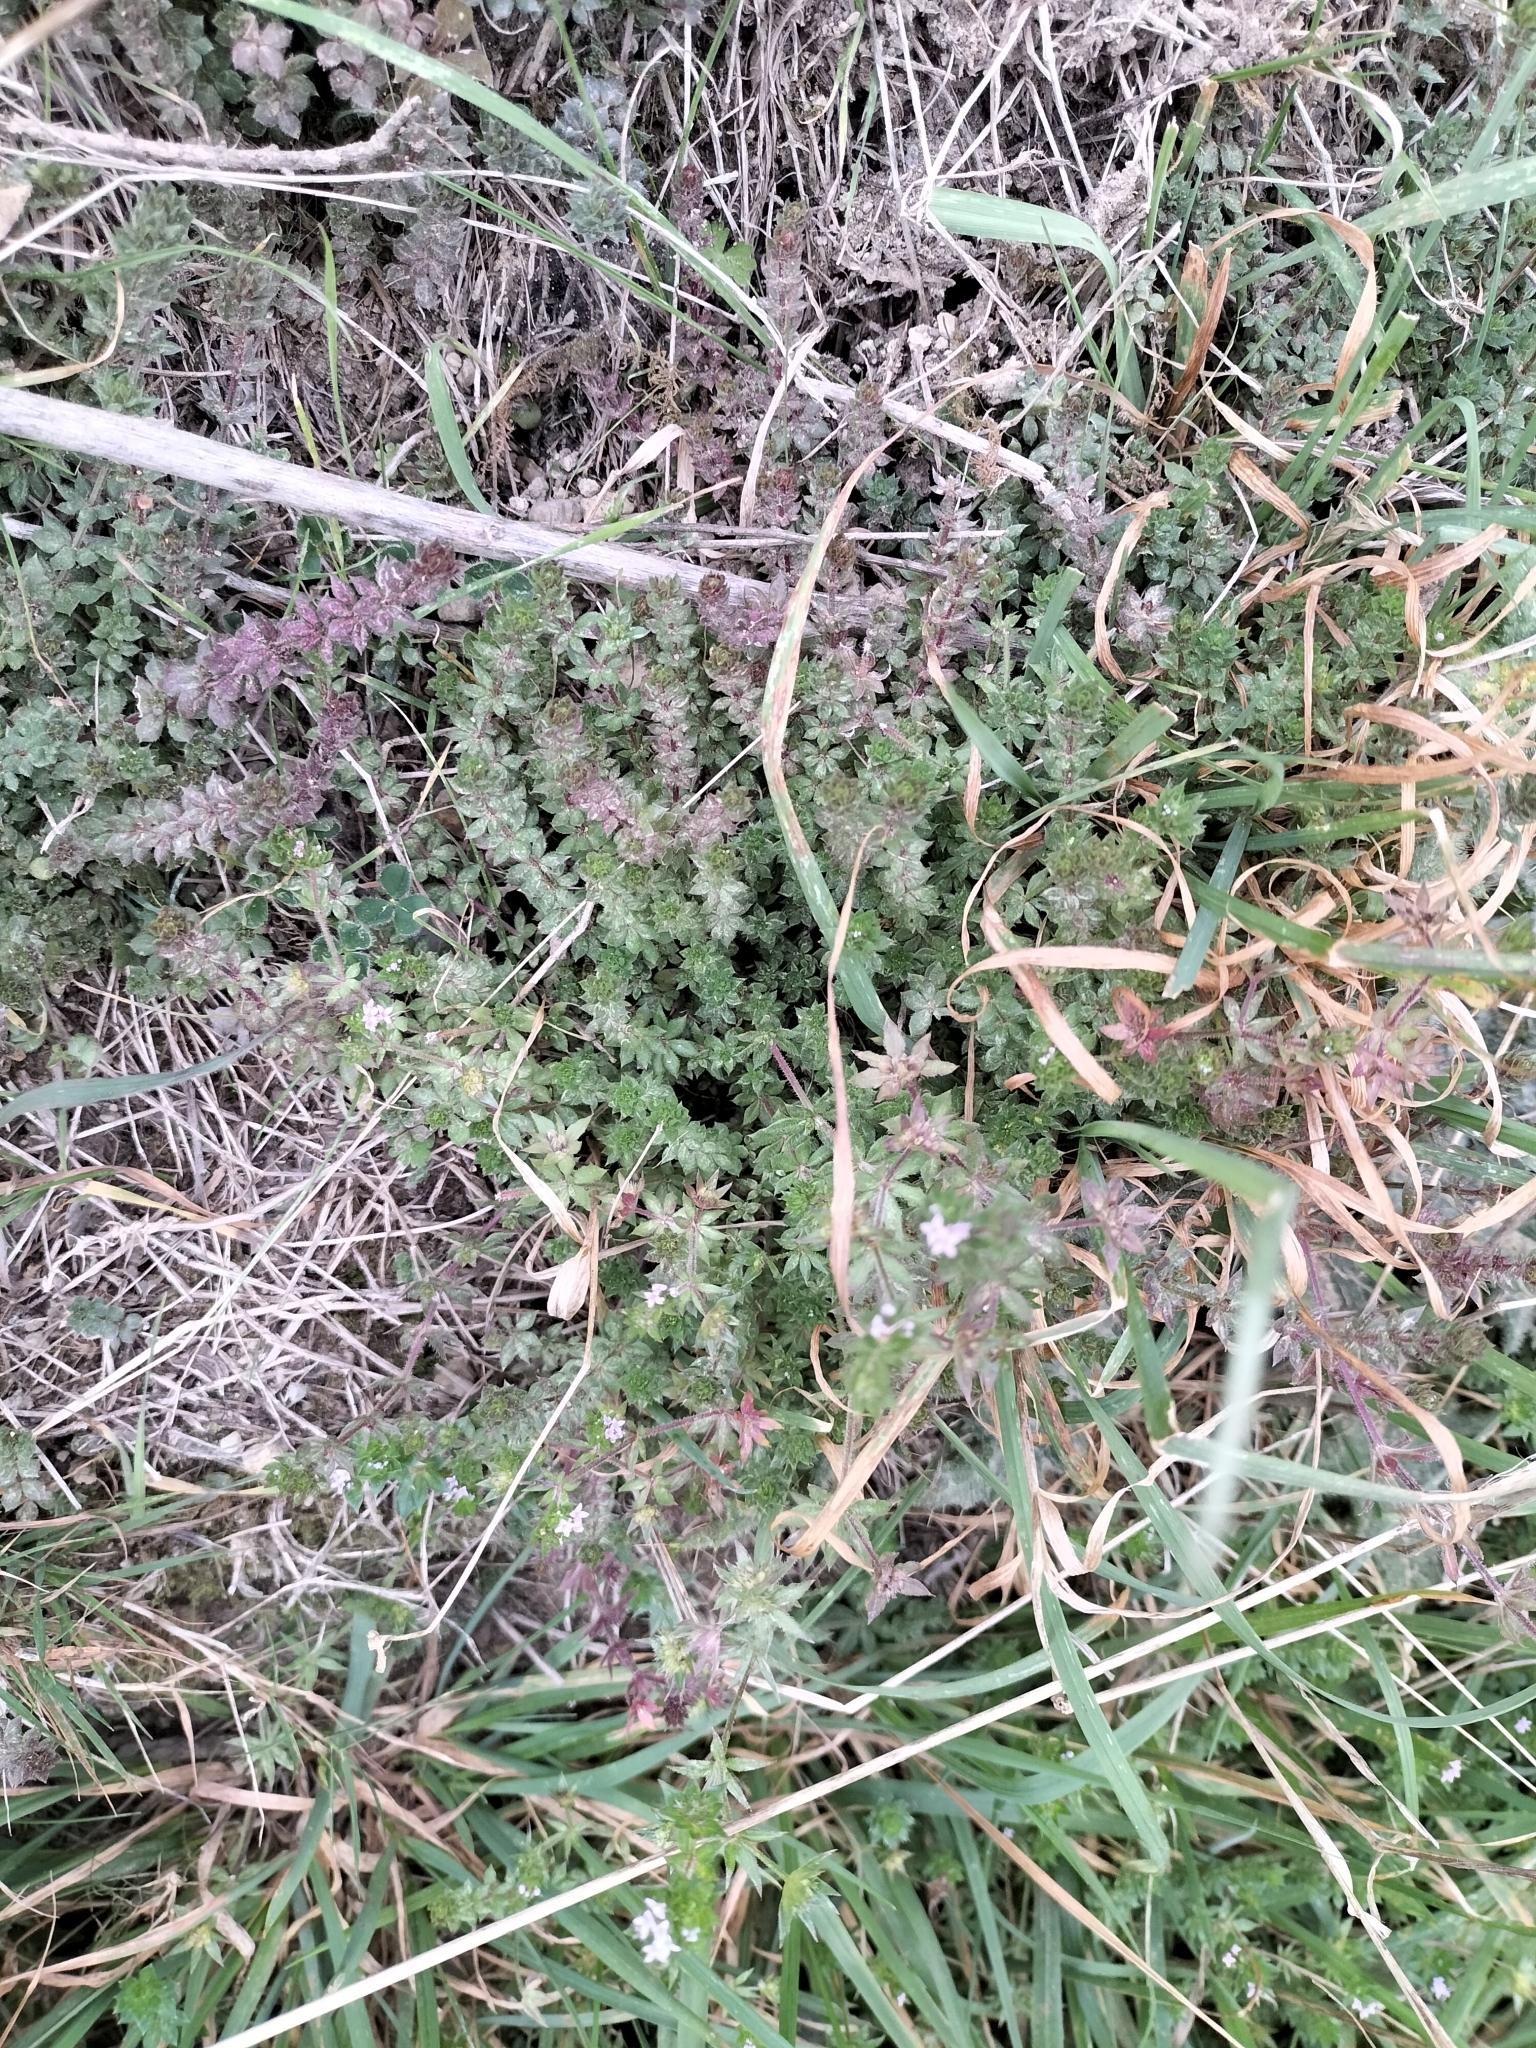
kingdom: Plantae
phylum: Tracheophyta
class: Magnoliopsida
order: Gentianales
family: Rubiaceae
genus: Sherardia
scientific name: Sherardia arvensis
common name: Field madder
